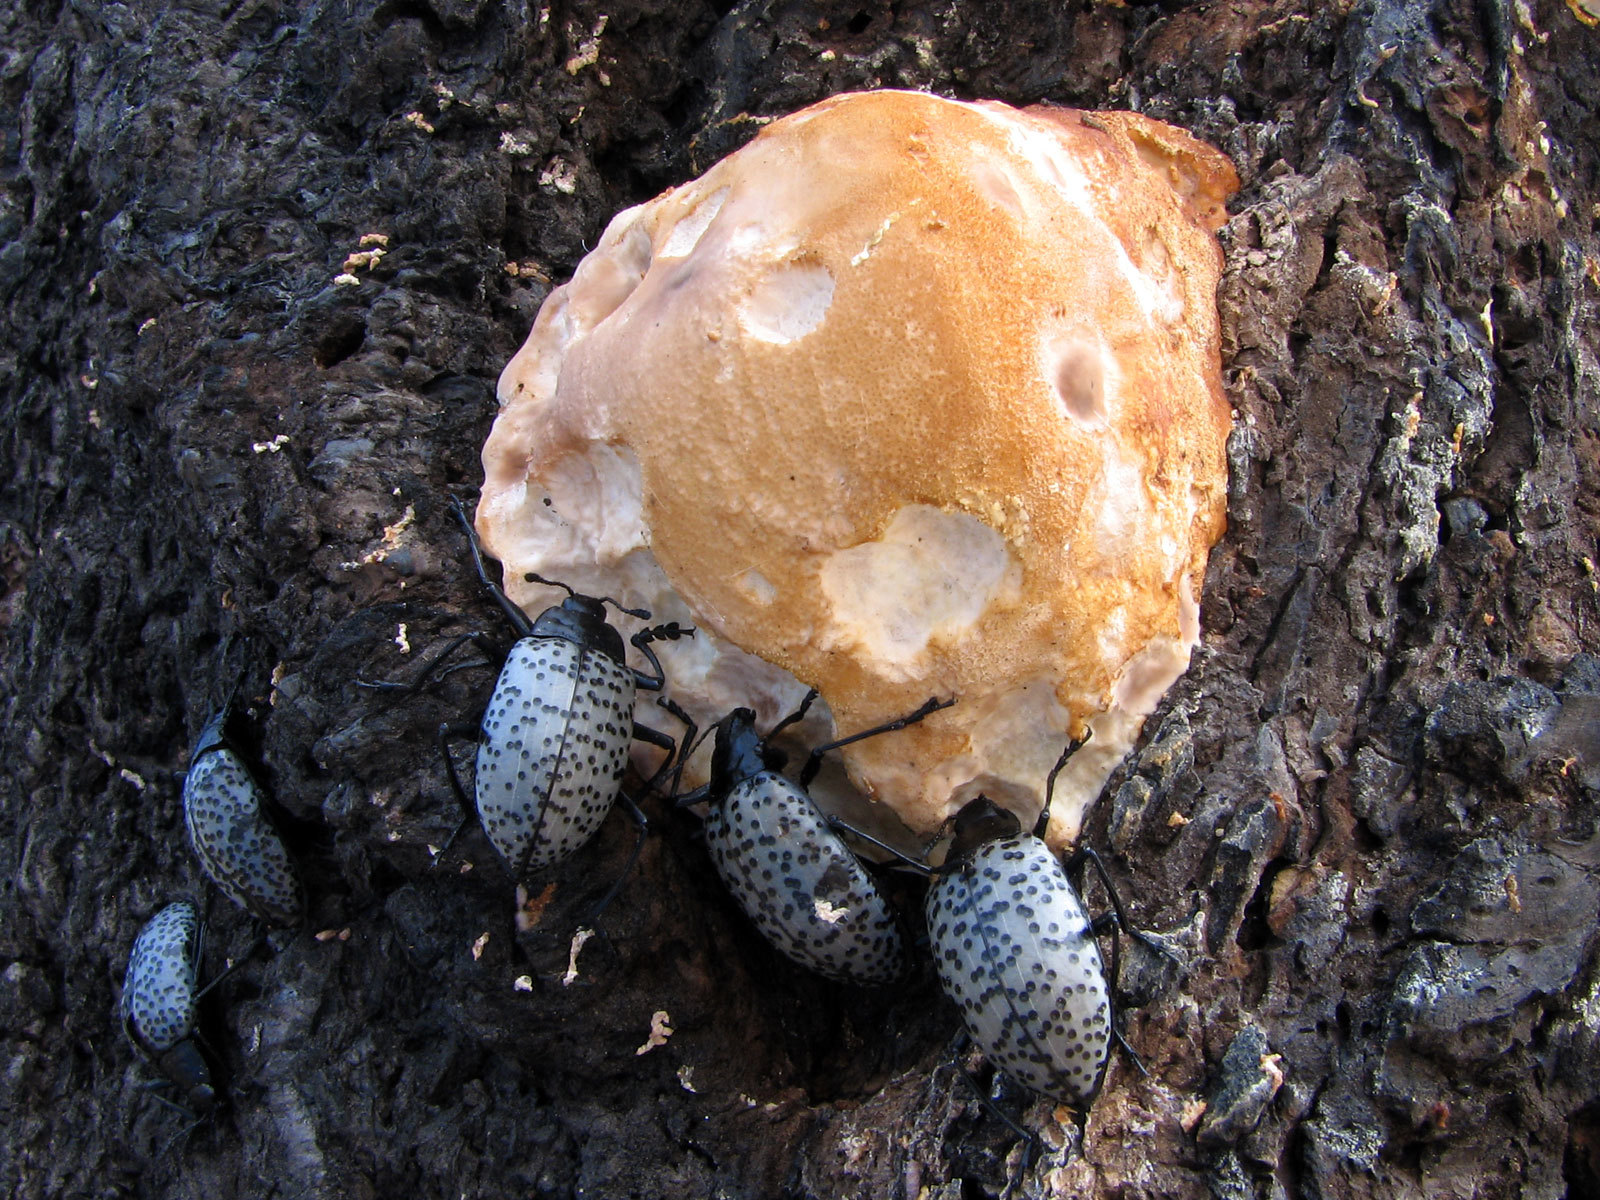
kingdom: Animalia
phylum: Arthropoda
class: Insecta
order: Coleoptera
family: Erotylidae
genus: Gibbifer
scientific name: Gibbifer californicus
